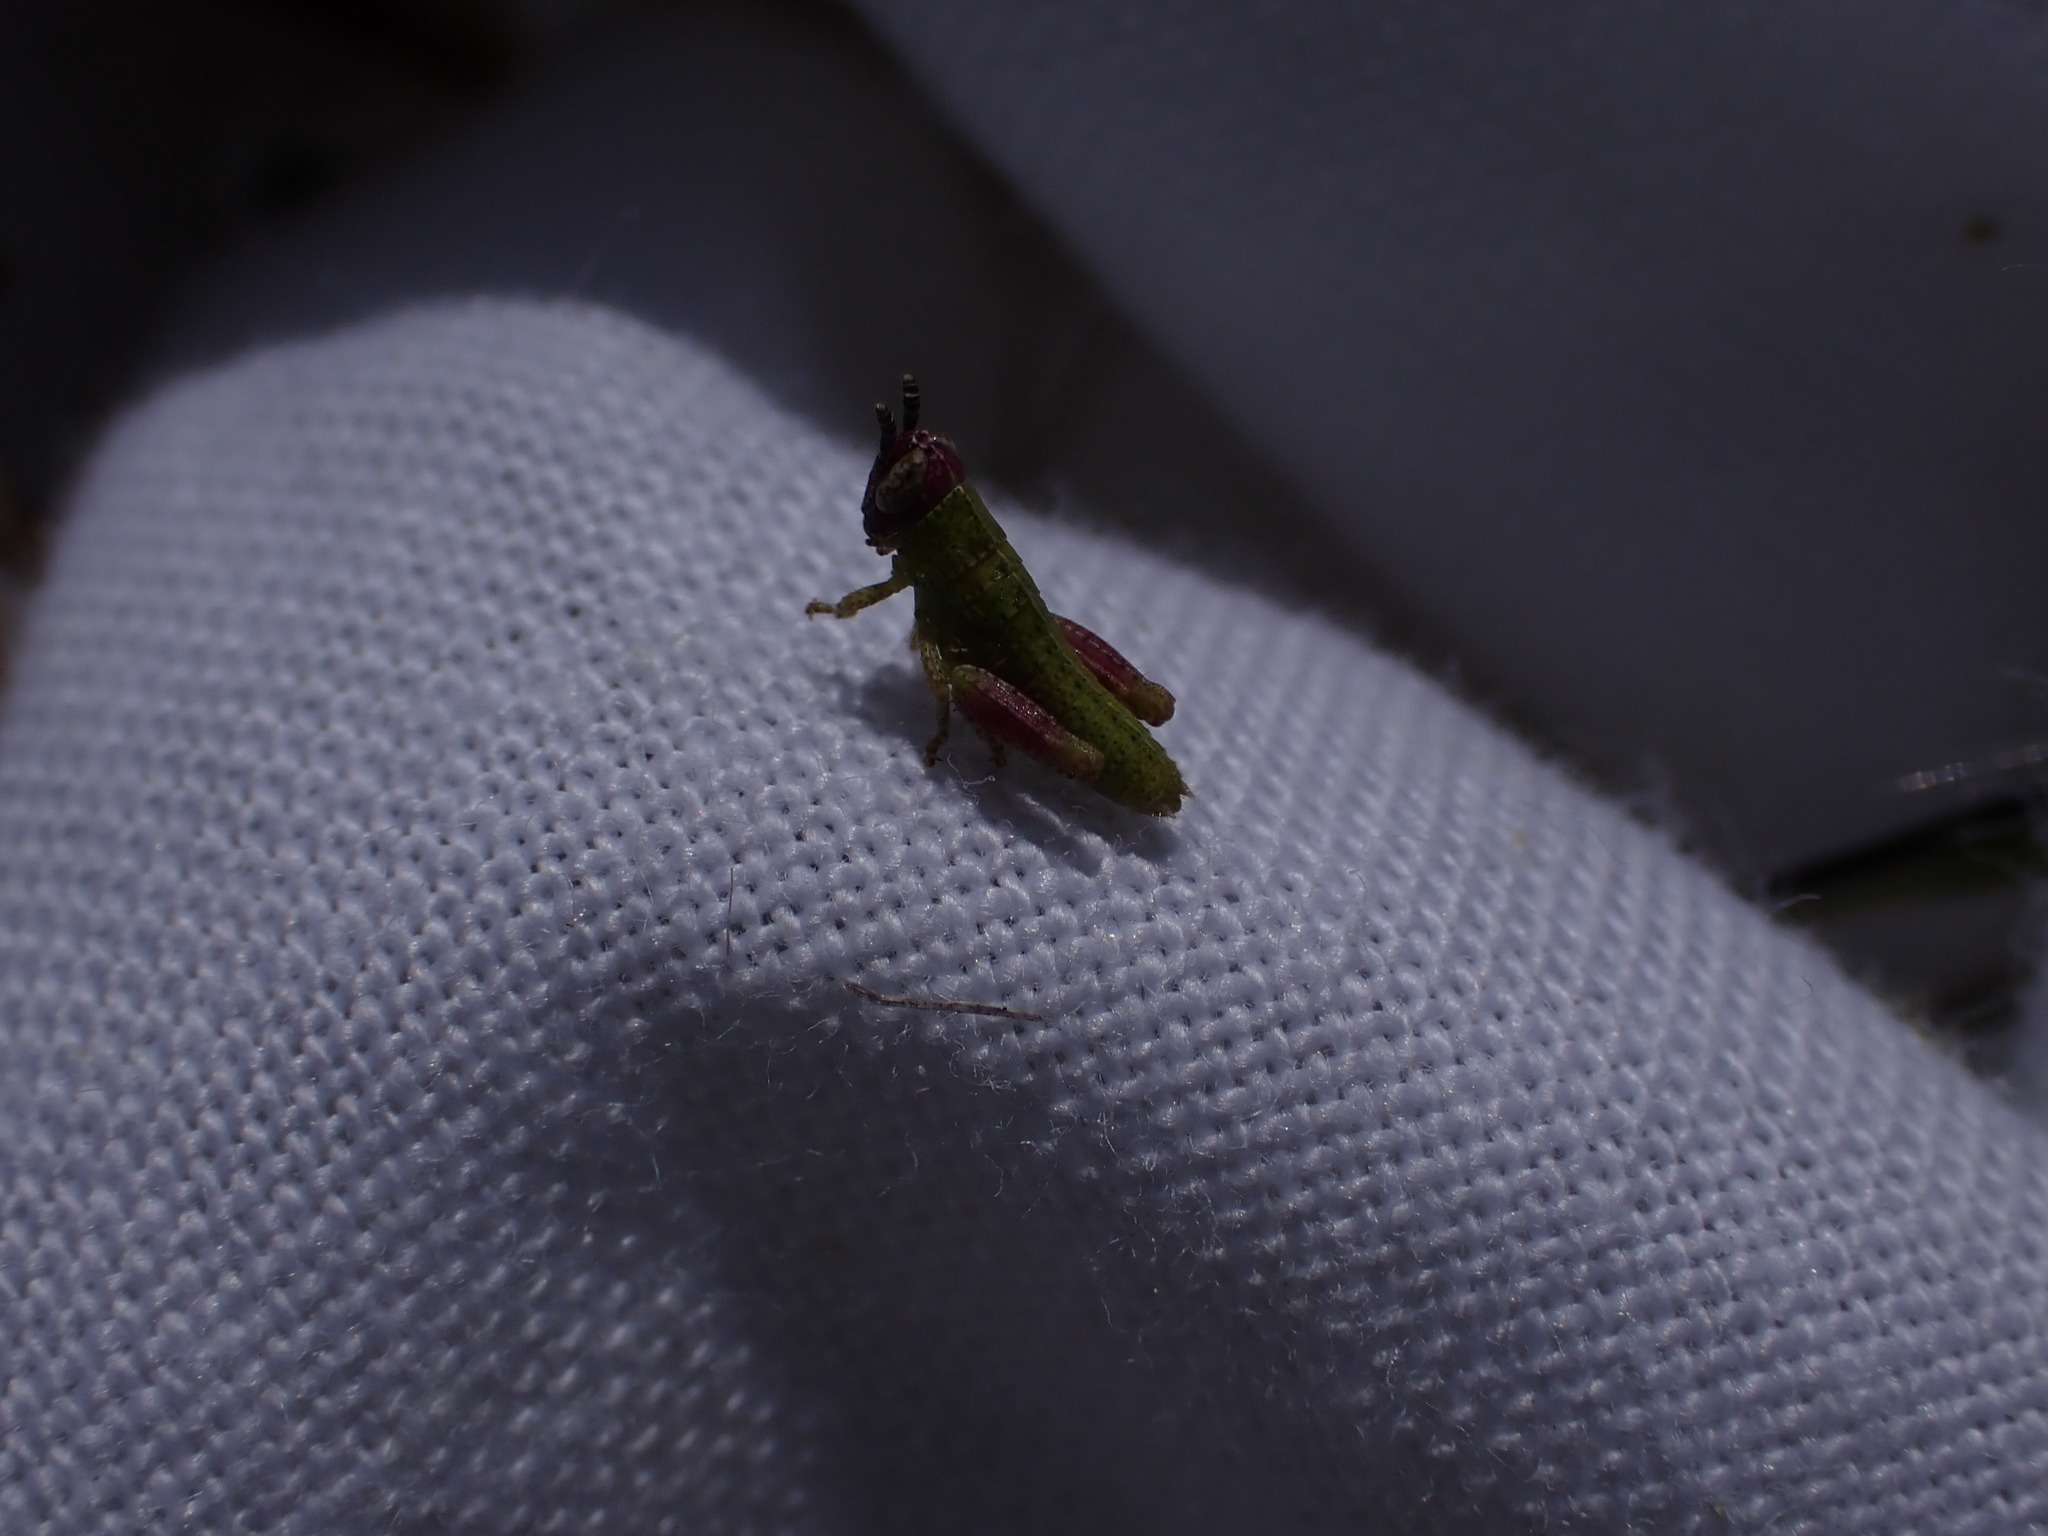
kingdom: Animalia
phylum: Arthropoda
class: Insecta
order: Orthoptera
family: Acrididae
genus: Pezotettix
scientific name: Pezotettix giornae
